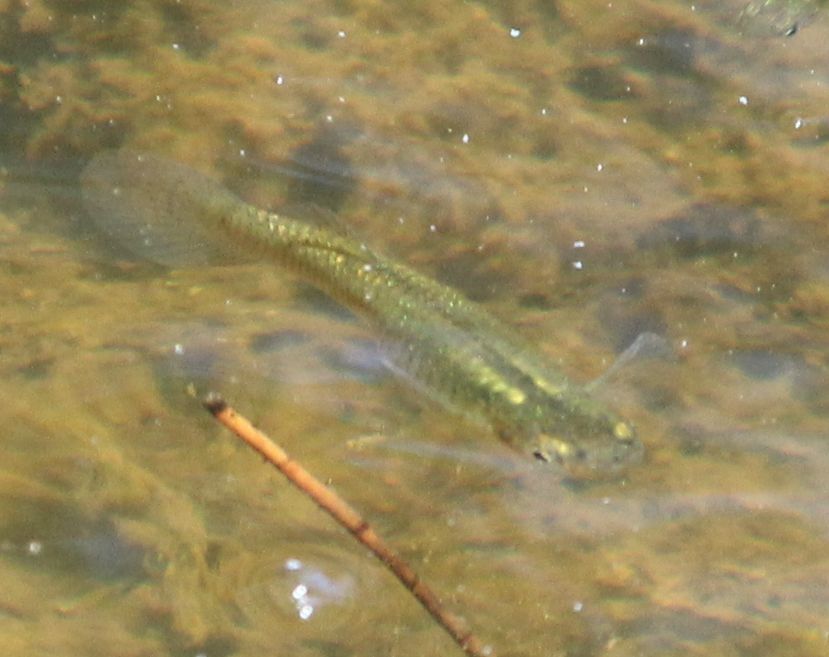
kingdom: Animalia
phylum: Chordata
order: Cyprinodontiformes
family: Poeciliidae
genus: Gambusia
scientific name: Gambusia holbrooki
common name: Eastern mosquitofish
